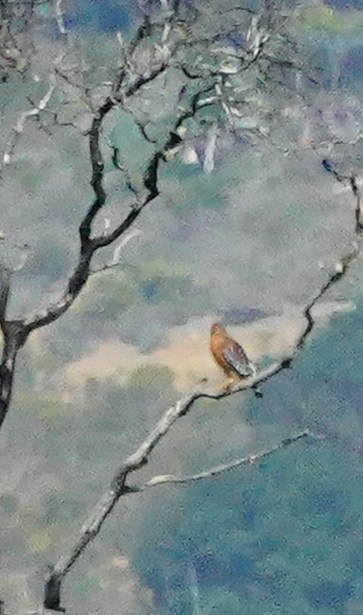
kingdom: Animalia
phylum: Chordata
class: Aves
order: Accipitriformes
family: Accipitridae
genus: Buteo
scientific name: Buteo lineatus
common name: Red-shouldered hawk
